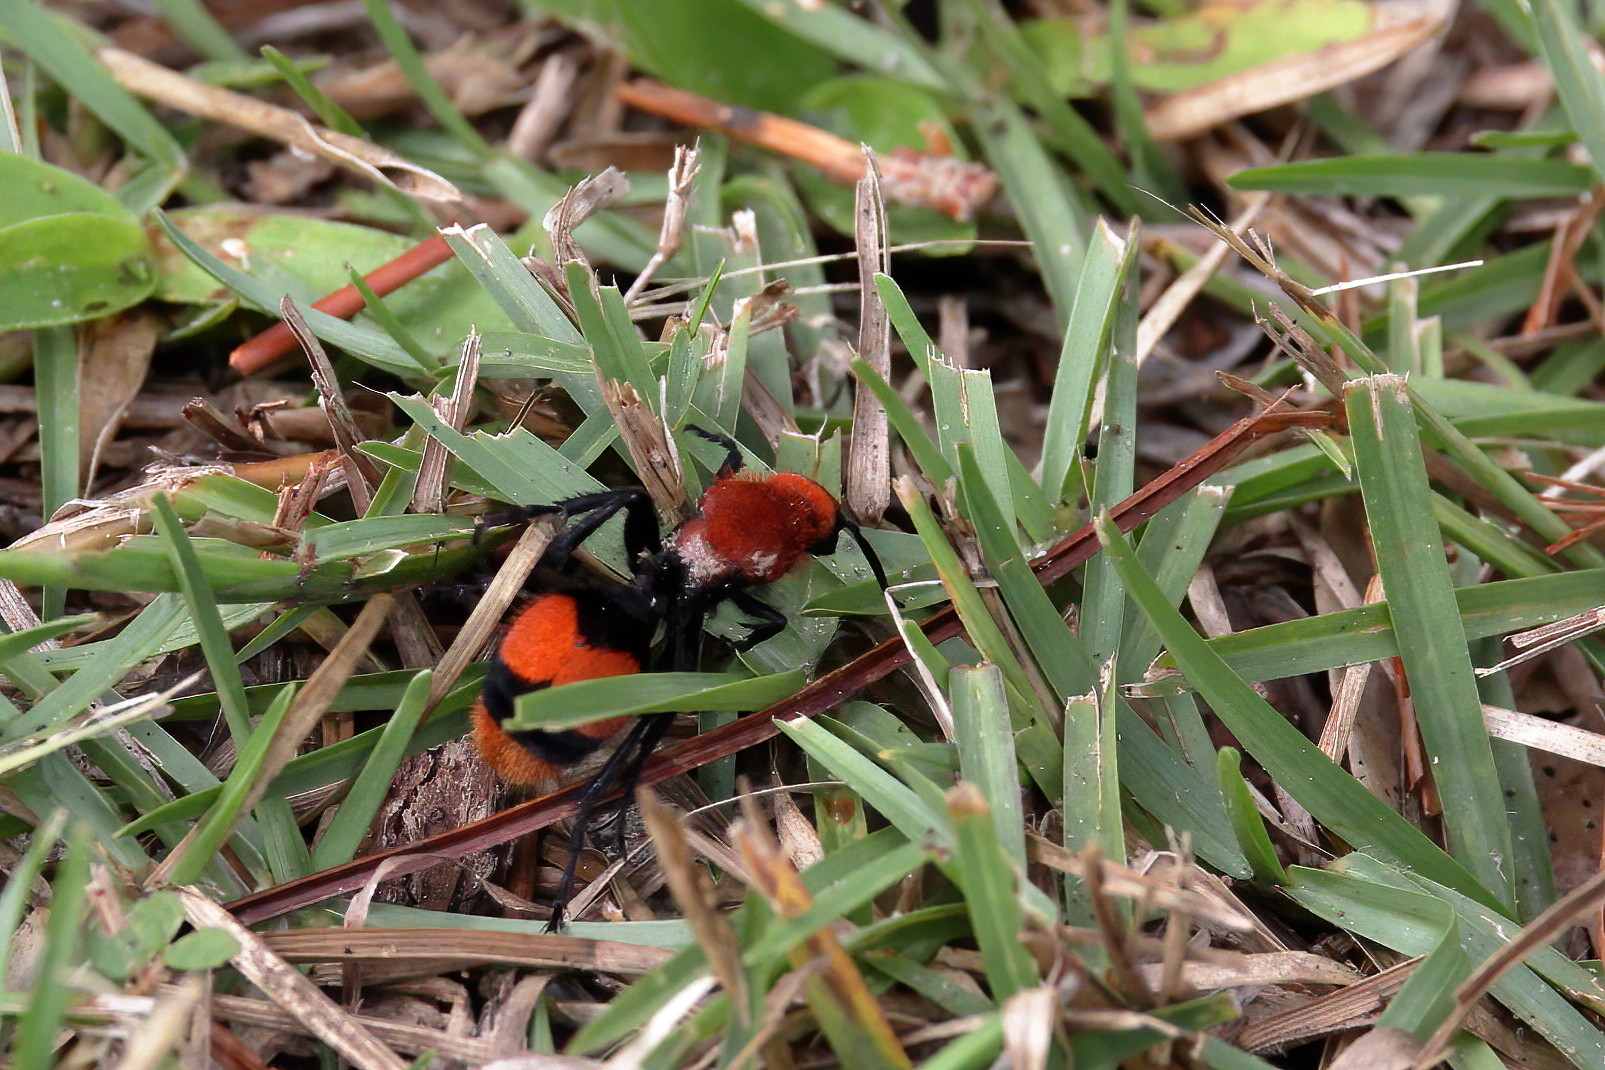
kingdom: Animalia
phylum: Arthropoda
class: Insecta
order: Hymenoptera
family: Mutillidae
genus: Dasymutilla
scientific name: Dasymutilla occidentalis
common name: Common eastern velvet ant
